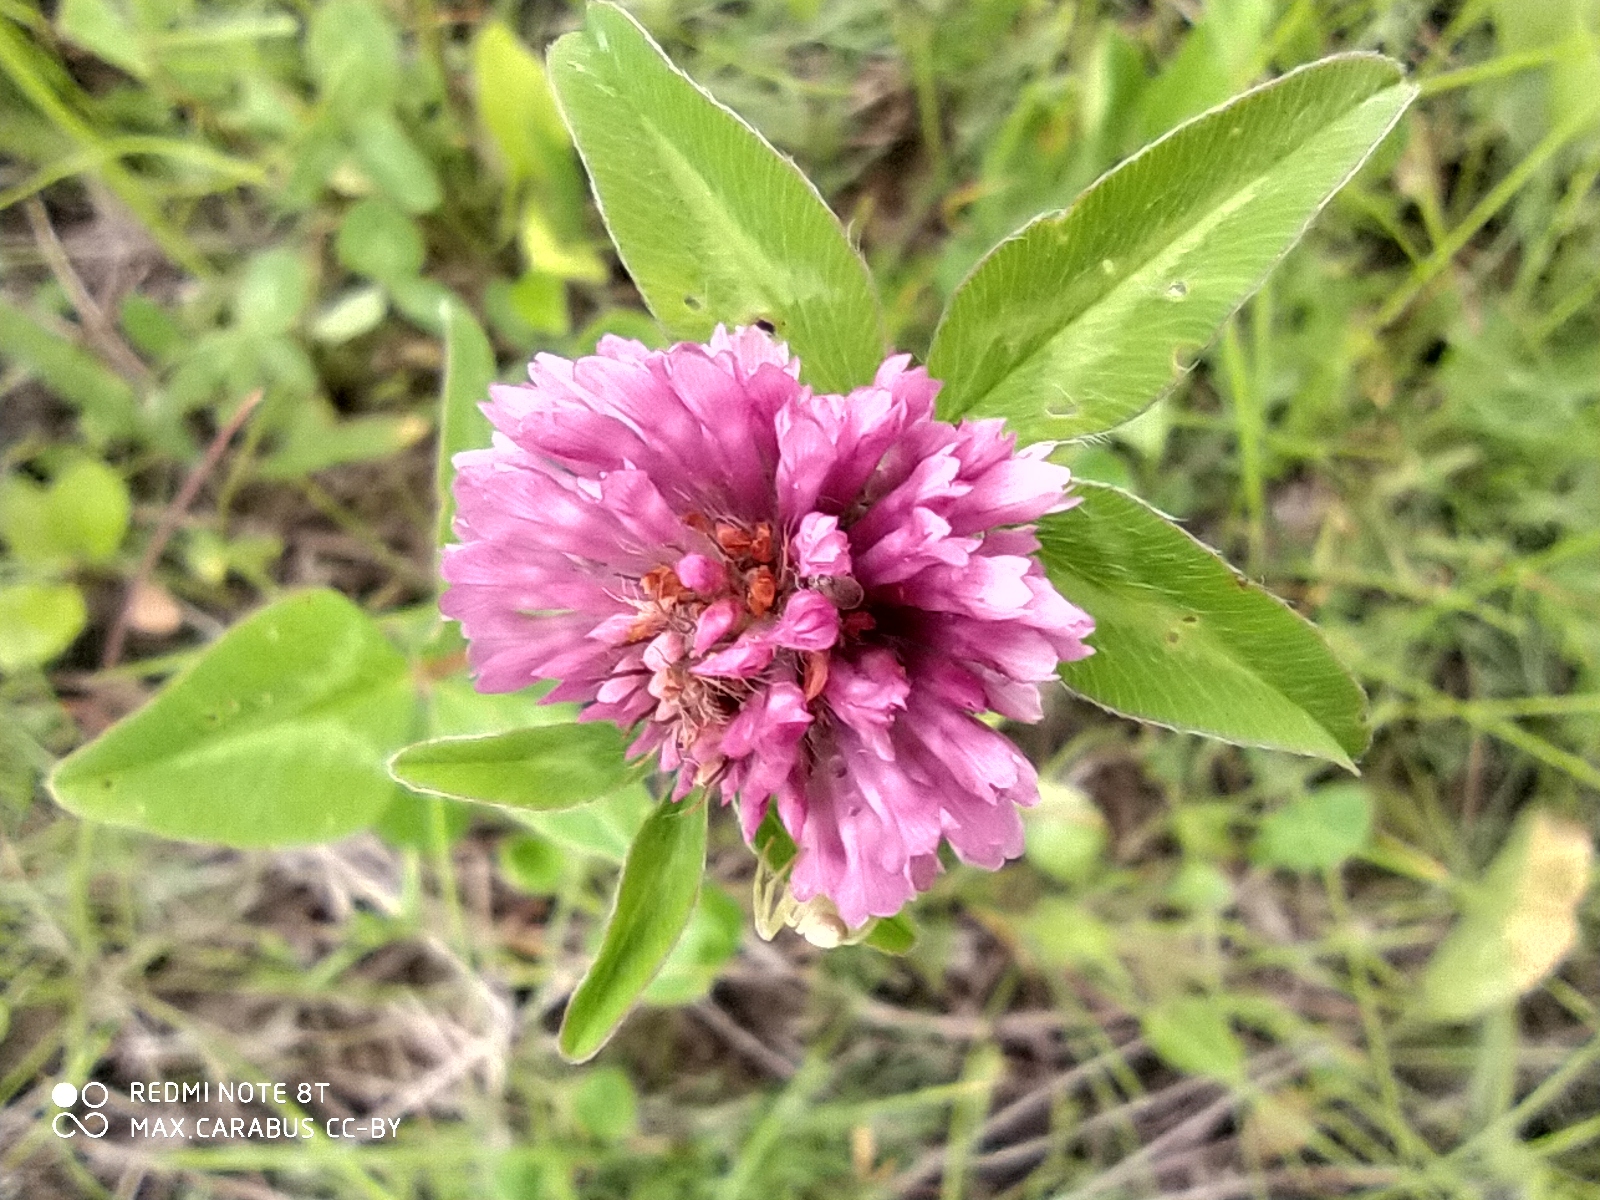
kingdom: Plantae
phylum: Tracheophyta
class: Magnoliopsida
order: Fabales
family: Fabaceae
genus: Trifolium
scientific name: Trifolium pratense
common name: Red clover
